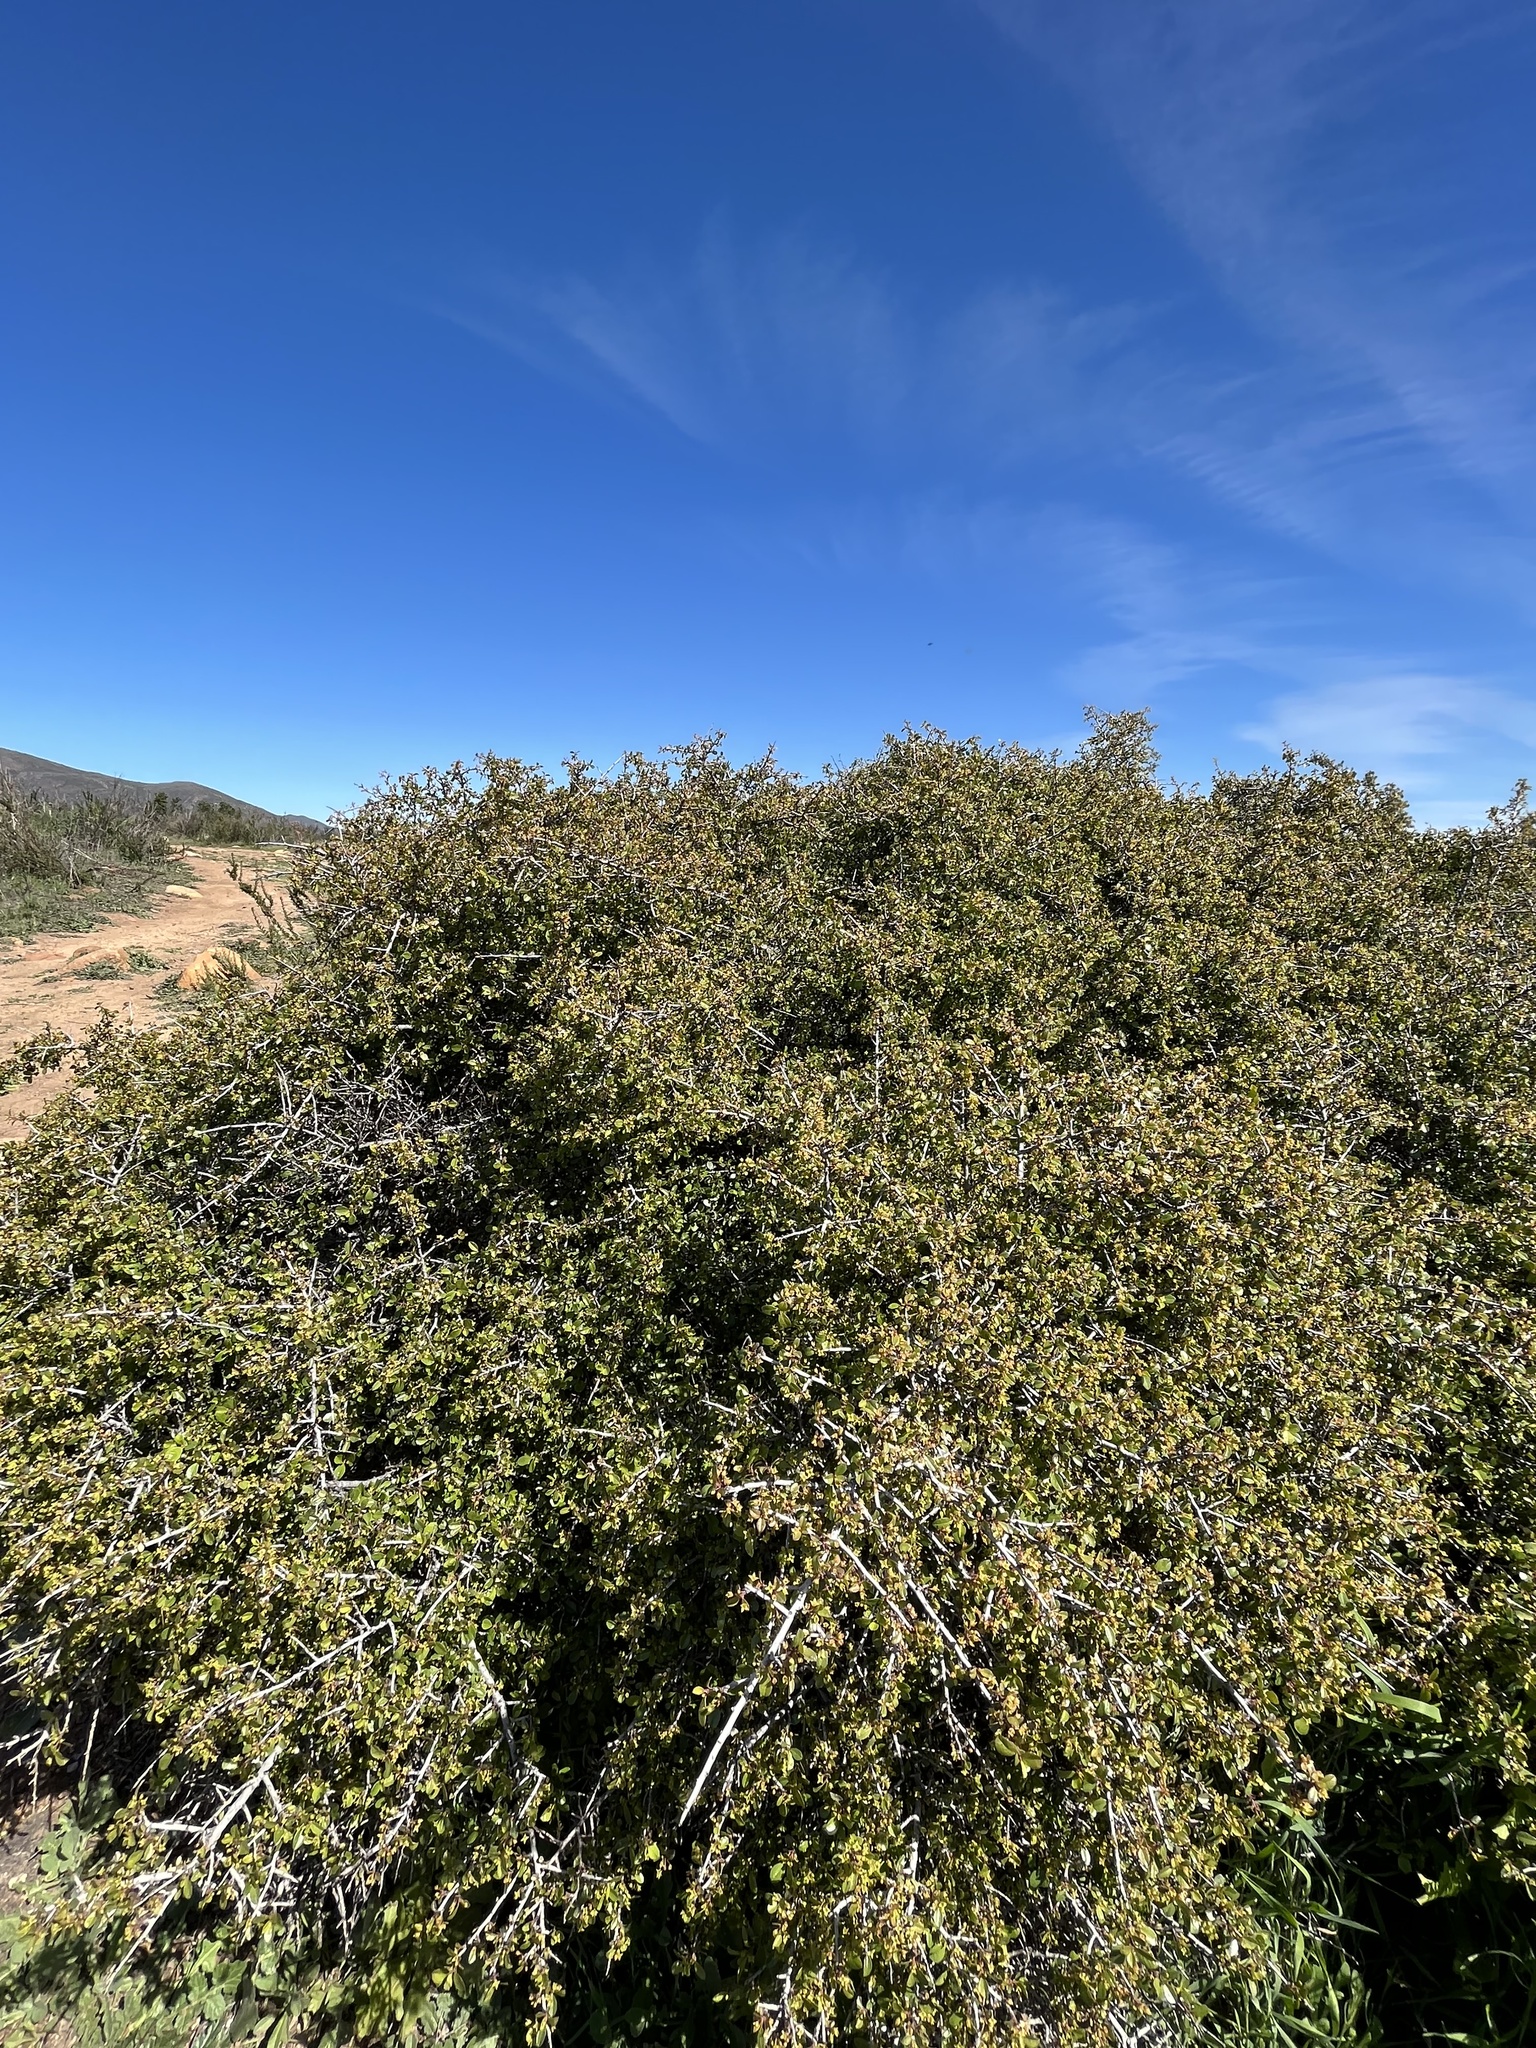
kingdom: Plantae
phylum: Tracheophyta
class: Magnoliopsida
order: Rosales
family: Rhamnaceae
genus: Endotropis
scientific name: Endotropis crocea
